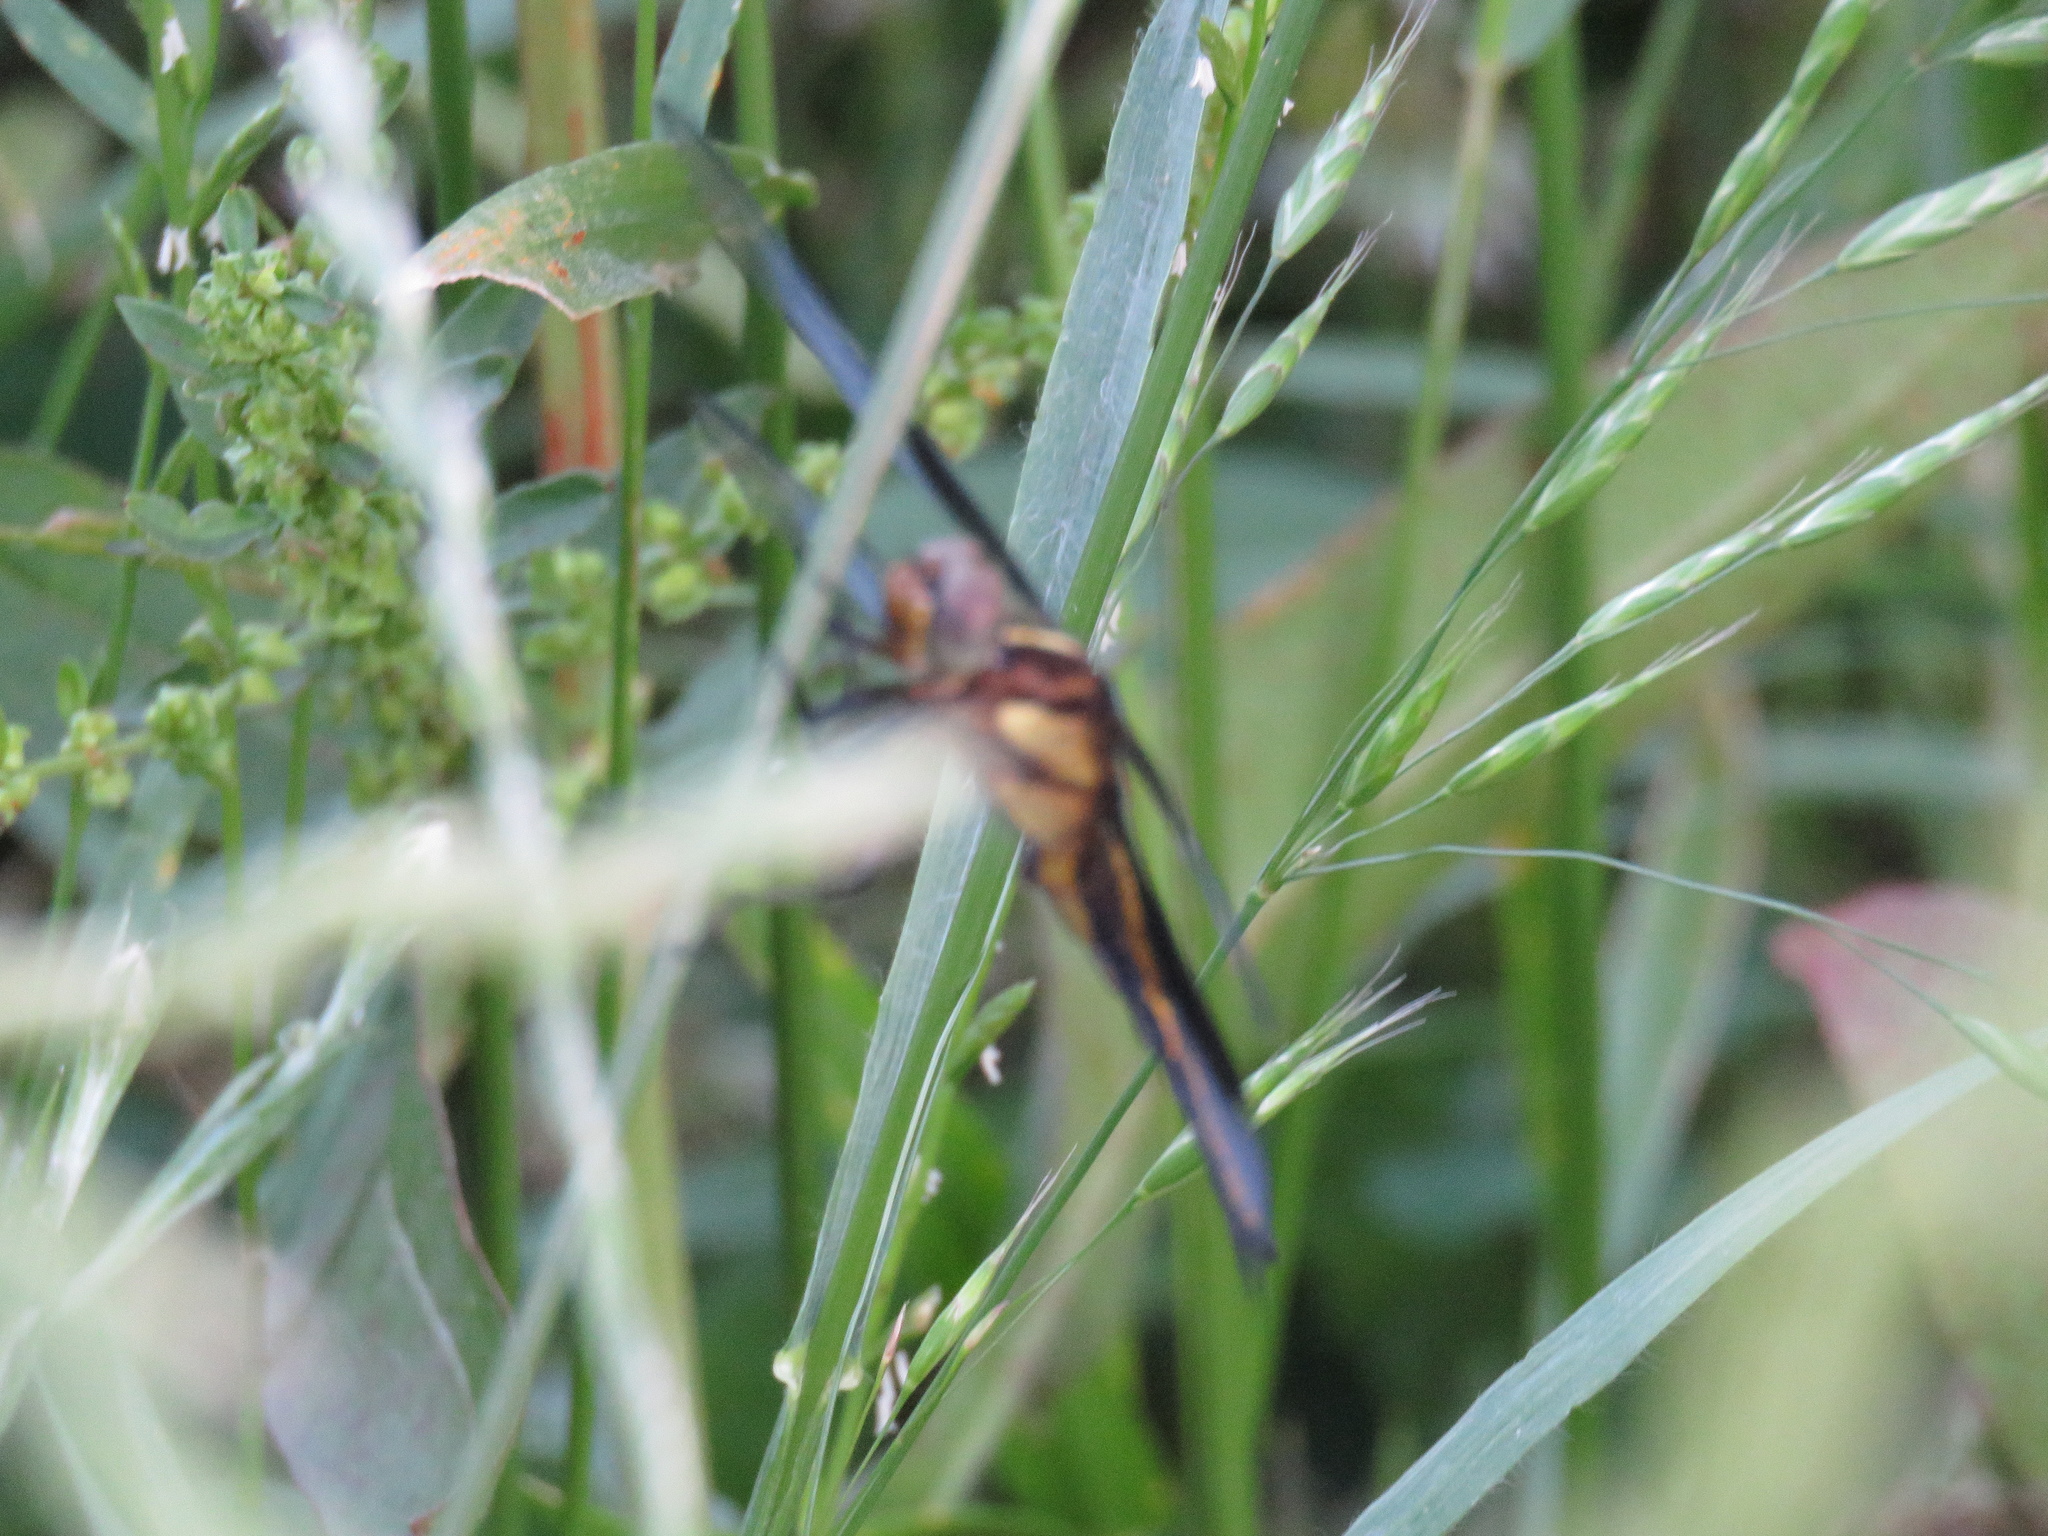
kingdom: Animalia
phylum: Arthropoda
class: Insecta
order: Odonata
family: Libellulidae
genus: Libellula
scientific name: Libellula luctuosa
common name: Widow skimmer
